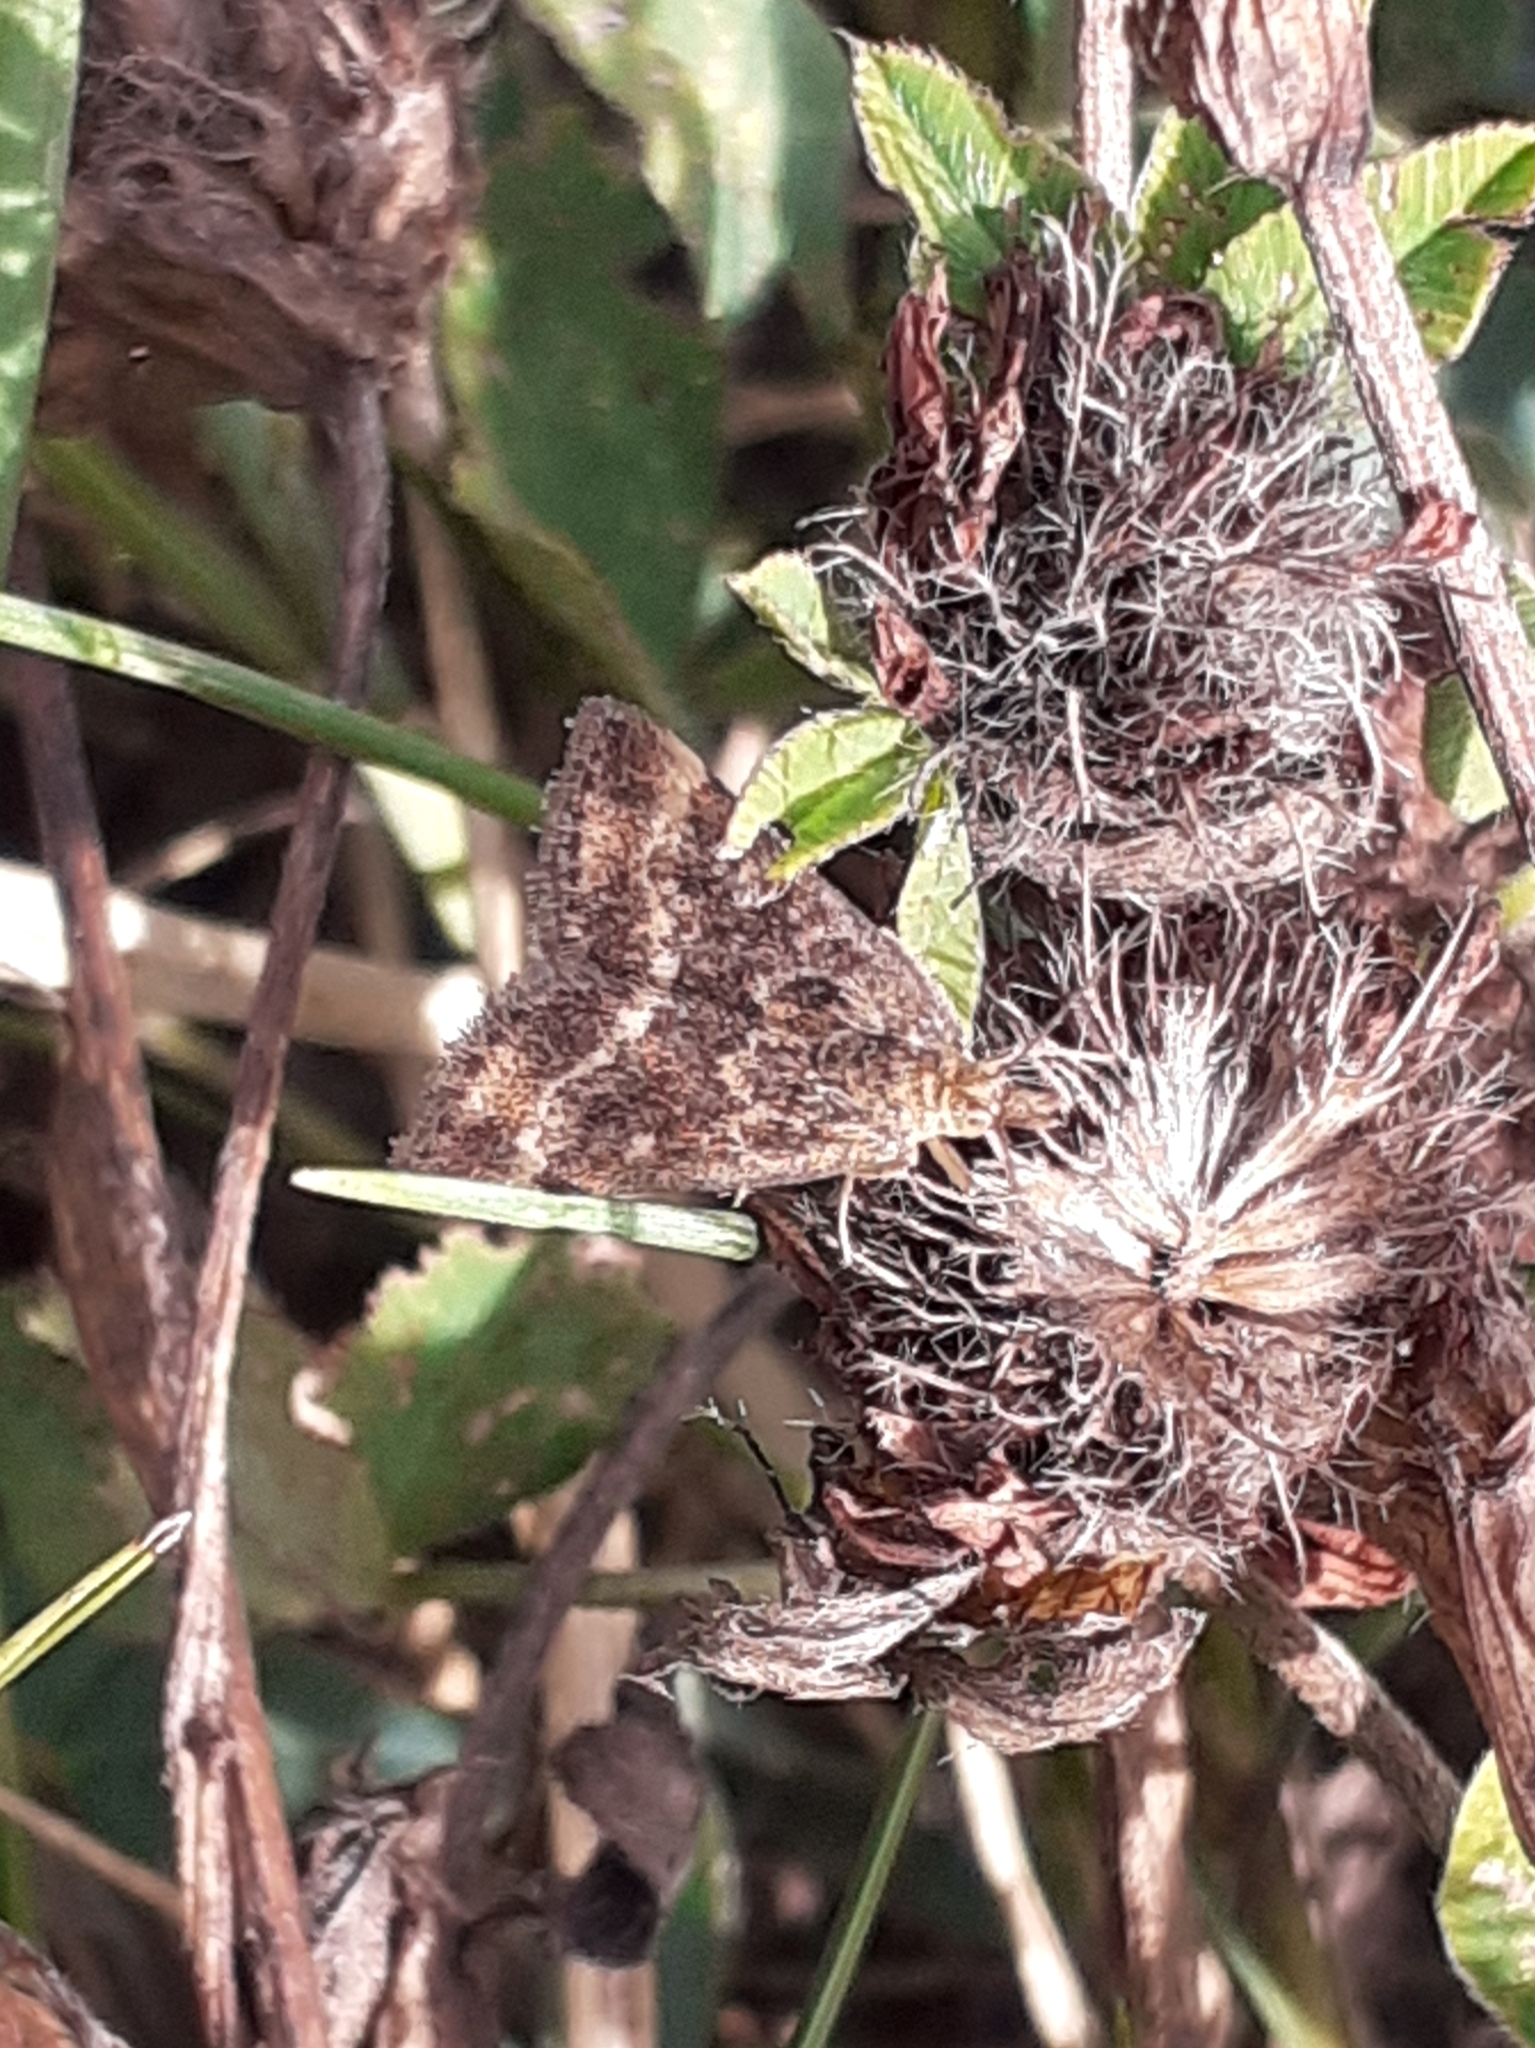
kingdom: Animalia
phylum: Arthropoda
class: Insecta
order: Lepidoptera
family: Crambidae
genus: Pyrausta
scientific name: Pyrausta despicata
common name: Straw-barred pearl
